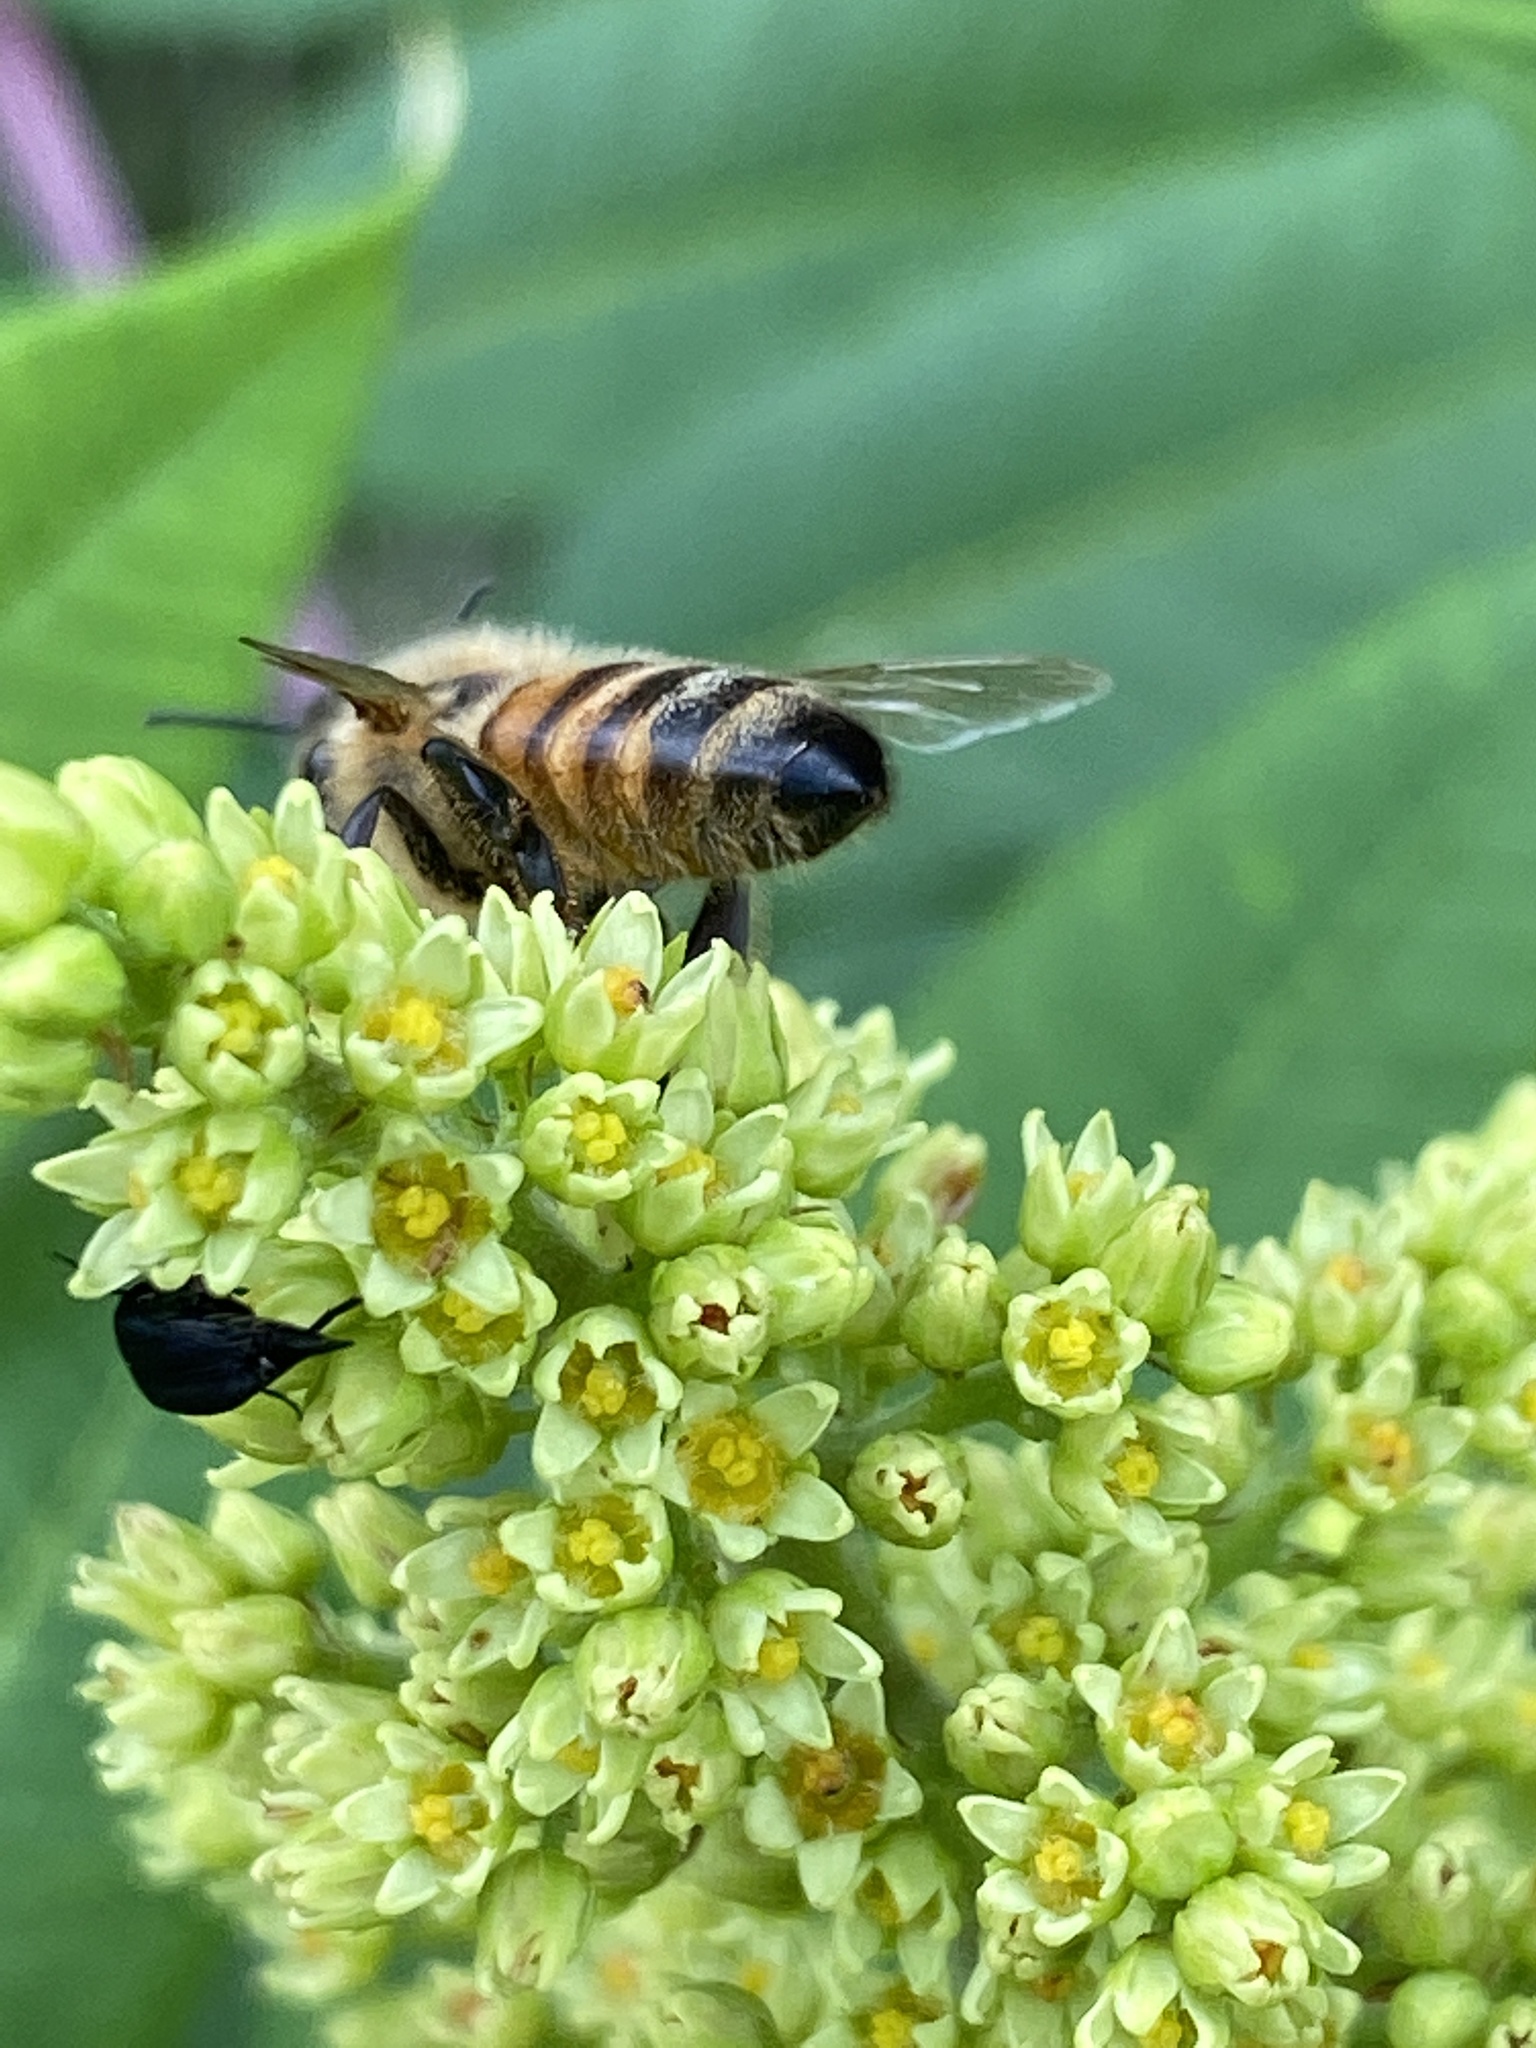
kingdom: Animalia
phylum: Arthropoda
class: Insecta
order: Hymenoptera
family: Apidae
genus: Apis
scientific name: Apis mellifera
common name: Honey bee
